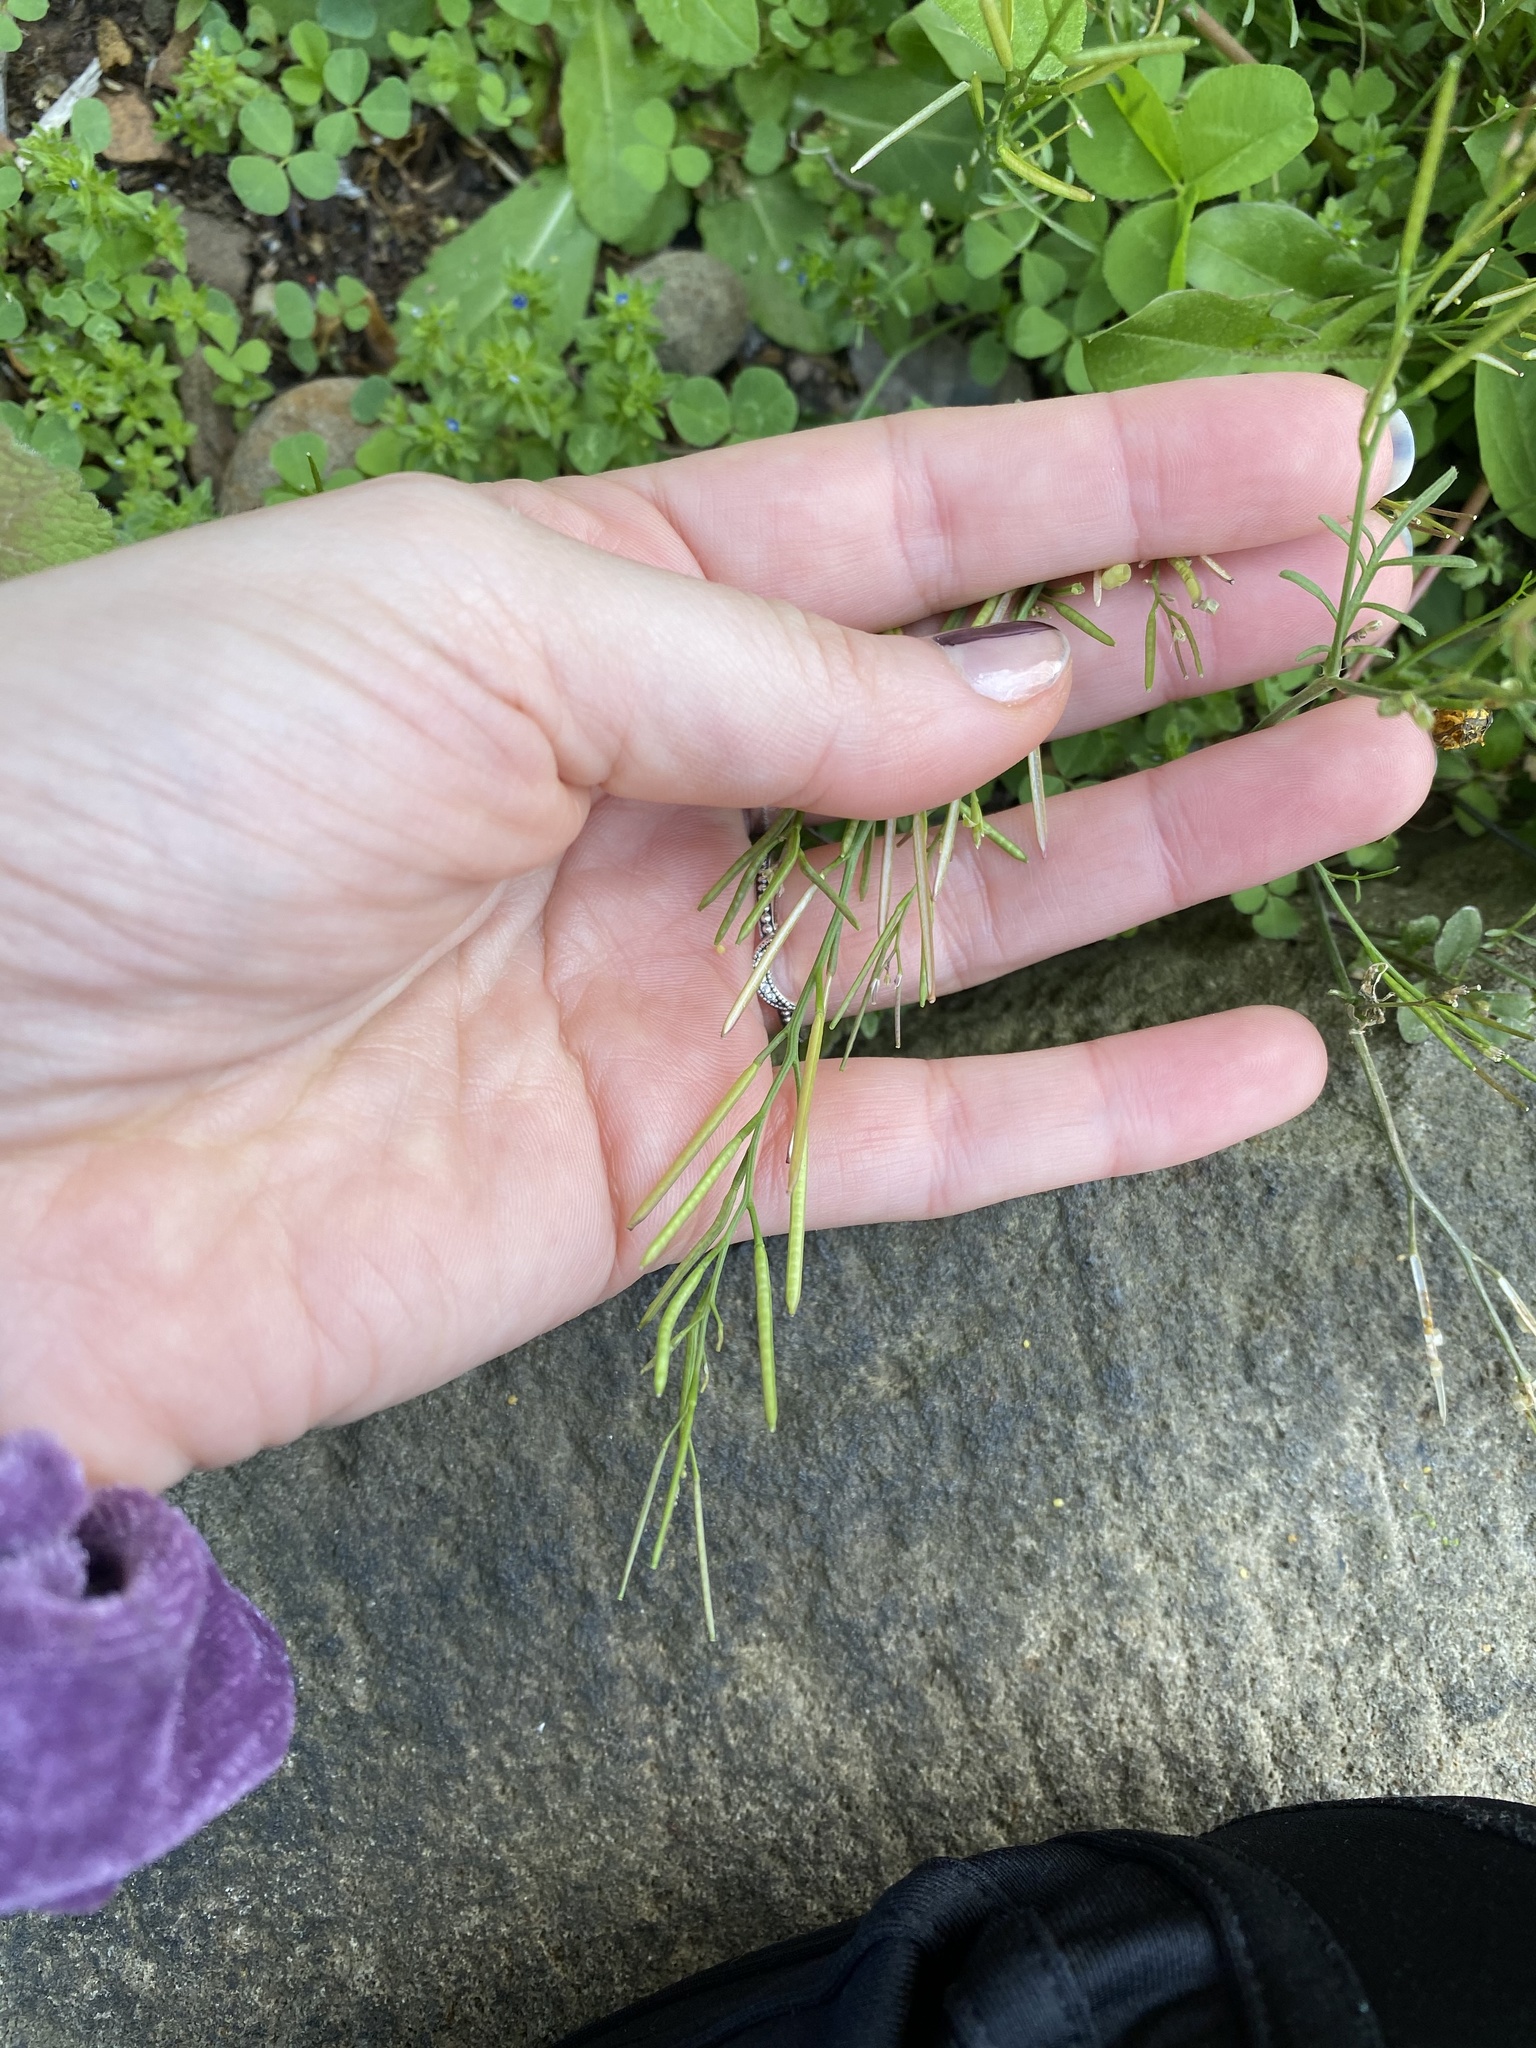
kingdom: Plantae
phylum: Tracheophyta
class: Magnoliopsida
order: Brassicales
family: Brassicaceae
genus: Cardamine
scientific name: Cardamine hirsuta
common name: Hairy bittercress
